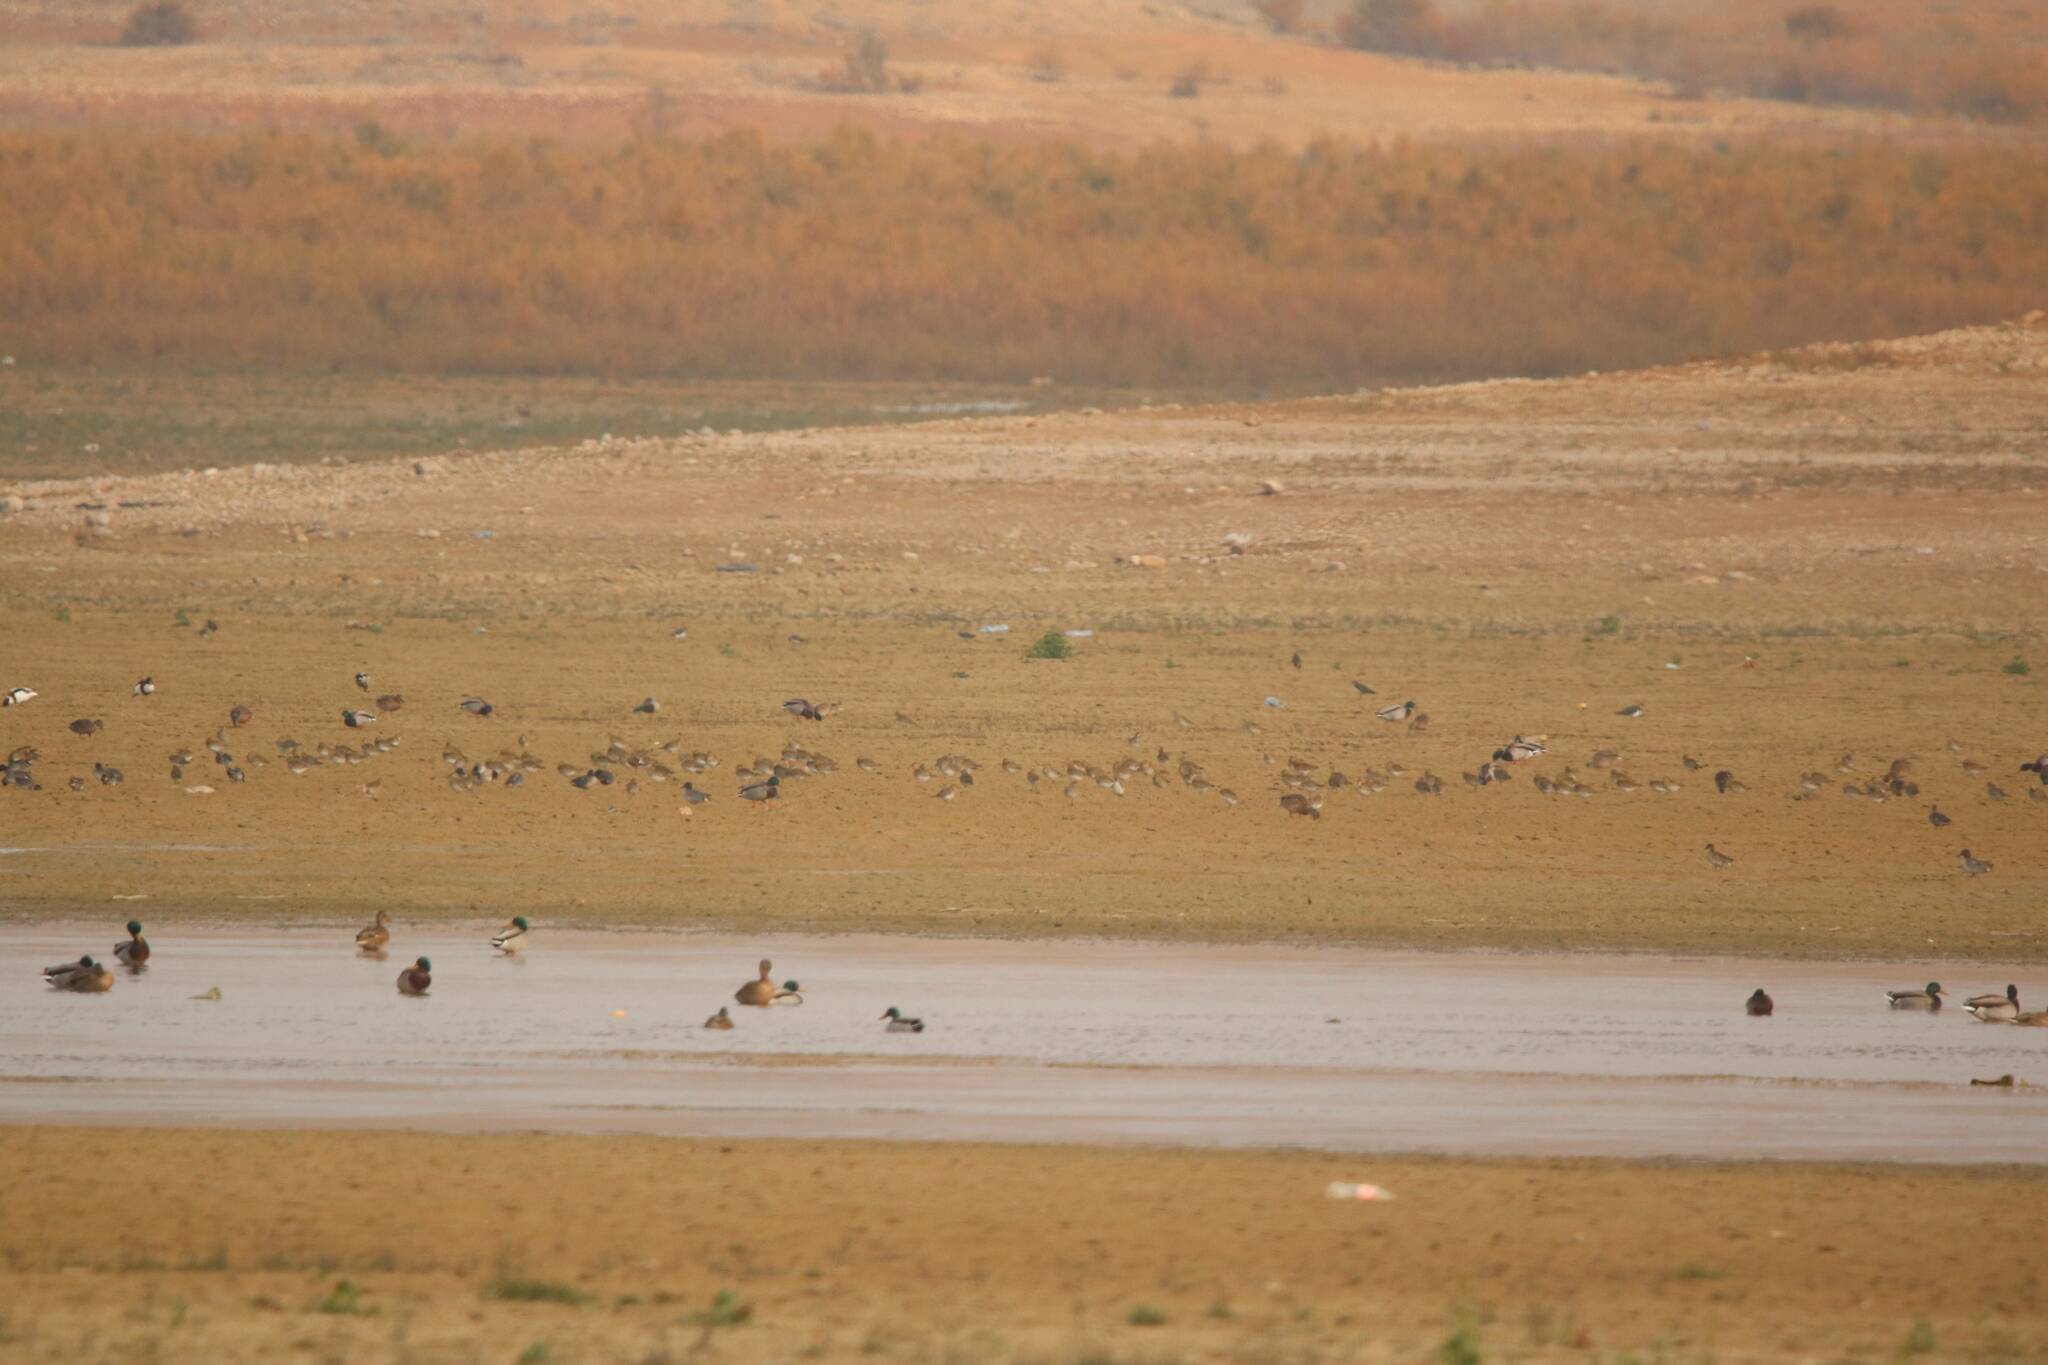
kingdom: Animalia
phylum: Chordata
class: Aves
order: Anseriformes
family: Anatidae
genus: Anas
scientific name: Anas platyrhynchos
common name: Mallard
